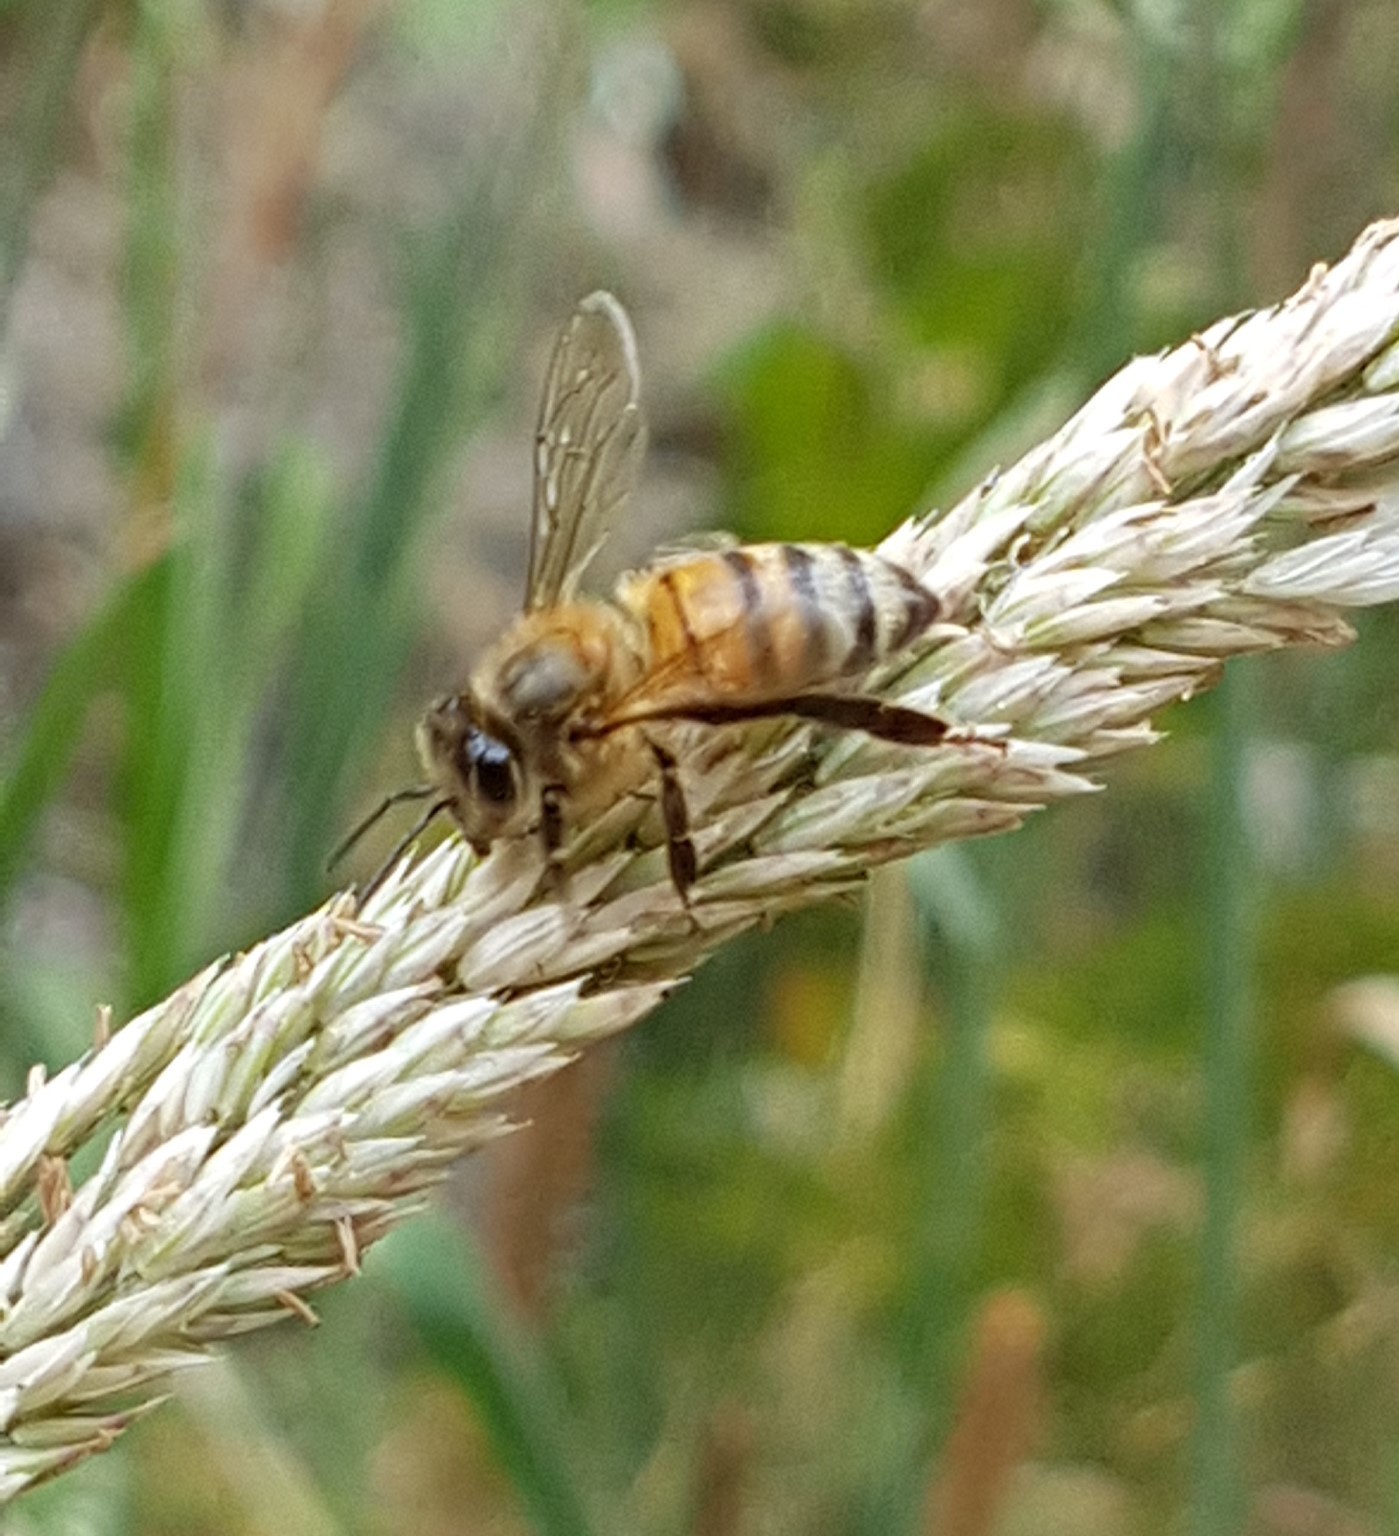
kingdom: Animalia
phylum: Arthropoda
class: Insecta
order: Hymenoptera
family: Apidae
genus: Apis
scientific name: Apis mellifera
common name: Honey bee
